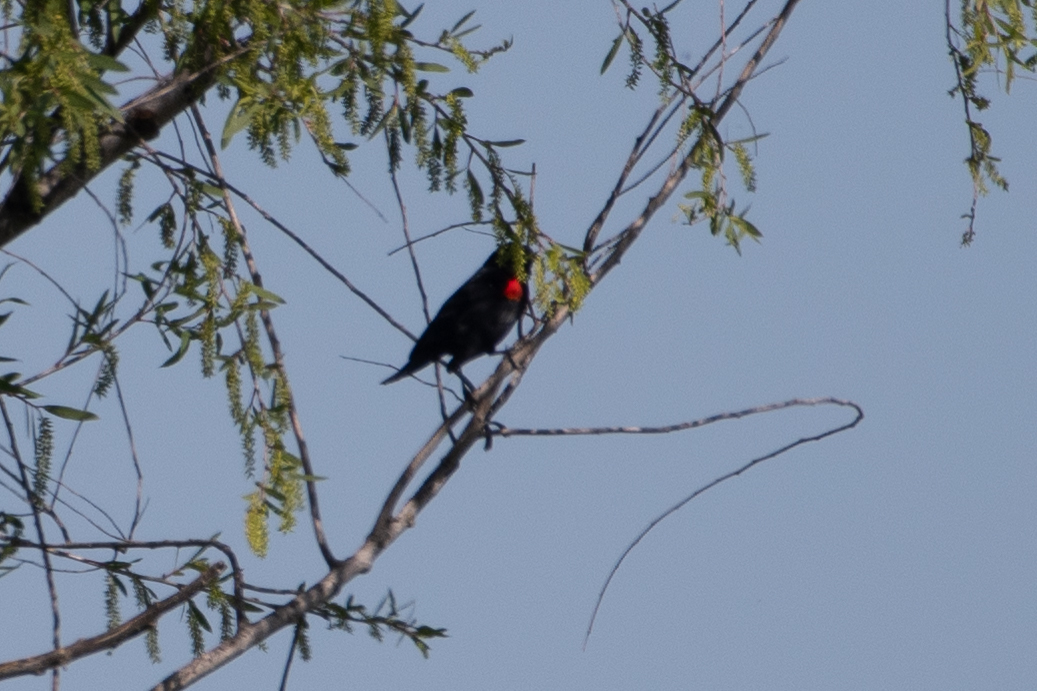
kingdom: Animalia
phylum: Chordata
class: Aves
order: Passeriformes
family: Icteridae
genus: Agelaius
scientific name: Agelaius phoeniceus
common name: Red-winged blackbird
